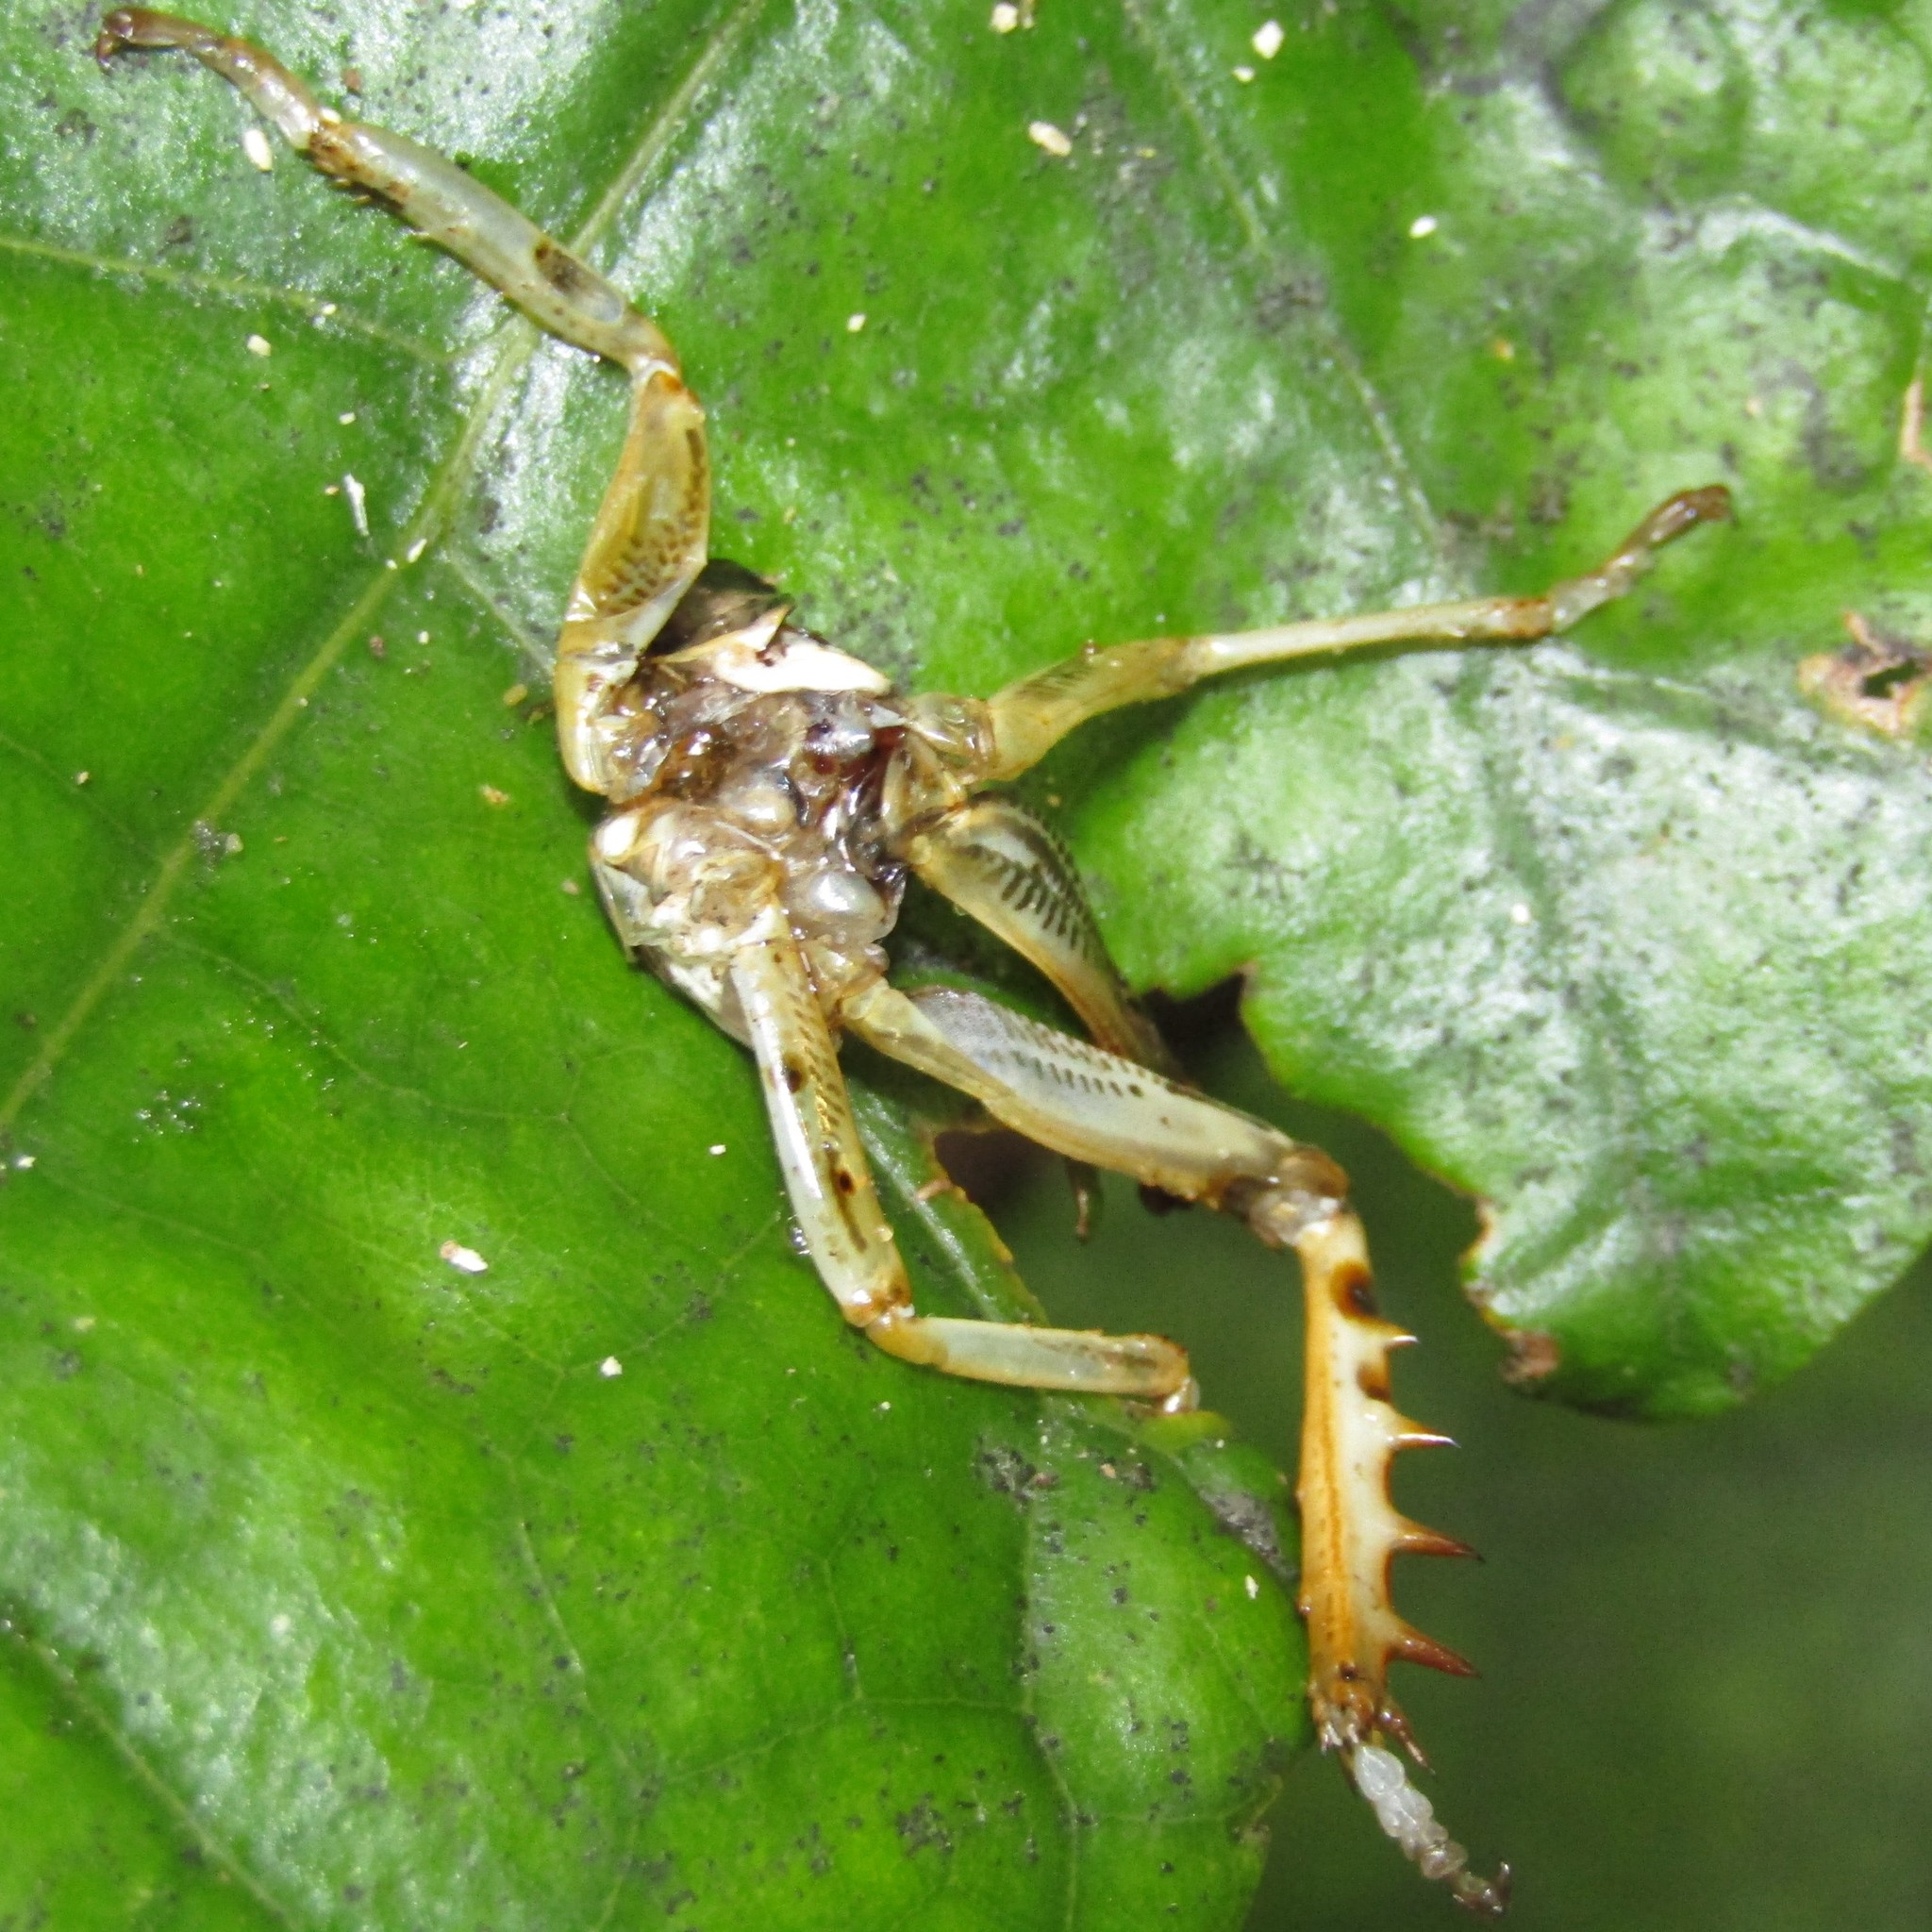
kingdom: Animalia
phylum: Arthropoda
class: Insecta
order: Orthoptera
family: Anostostomatidae
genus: Hemideina
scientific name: Hemideina crassidens
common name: Wellington tree weta
